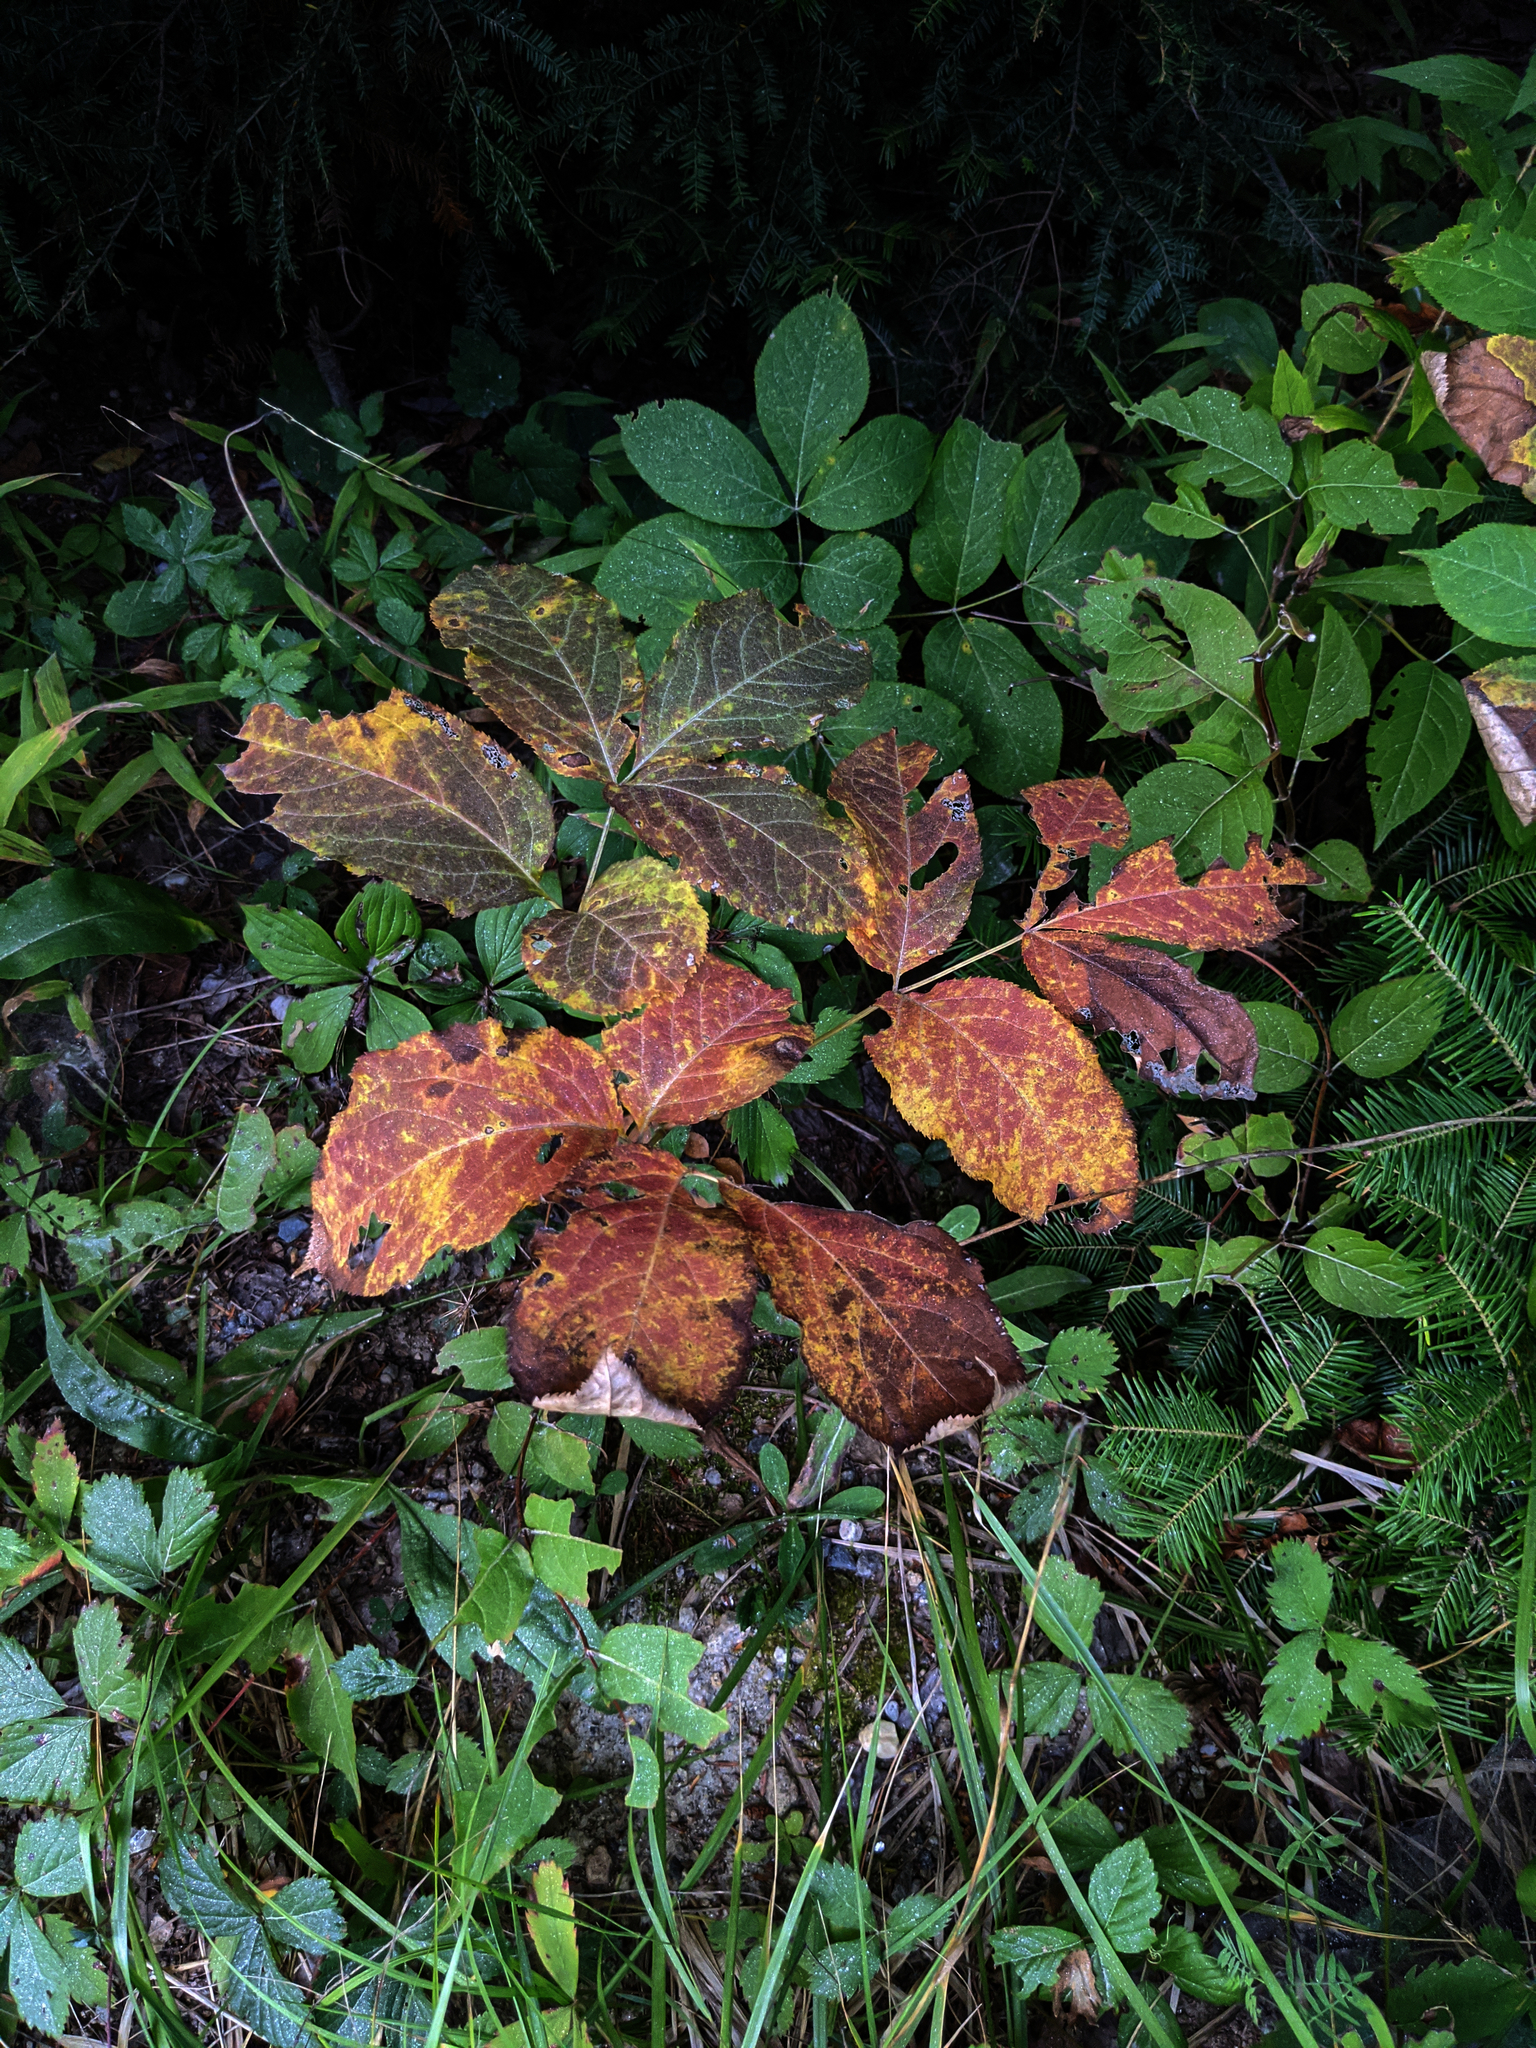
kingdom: Plantae
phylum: Tracheophyta
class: Magnoliopsida
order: Apiales
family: Araliaceae
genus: Aralia
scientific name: Aralia nudicaulis
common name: Wild sarsaparilla
